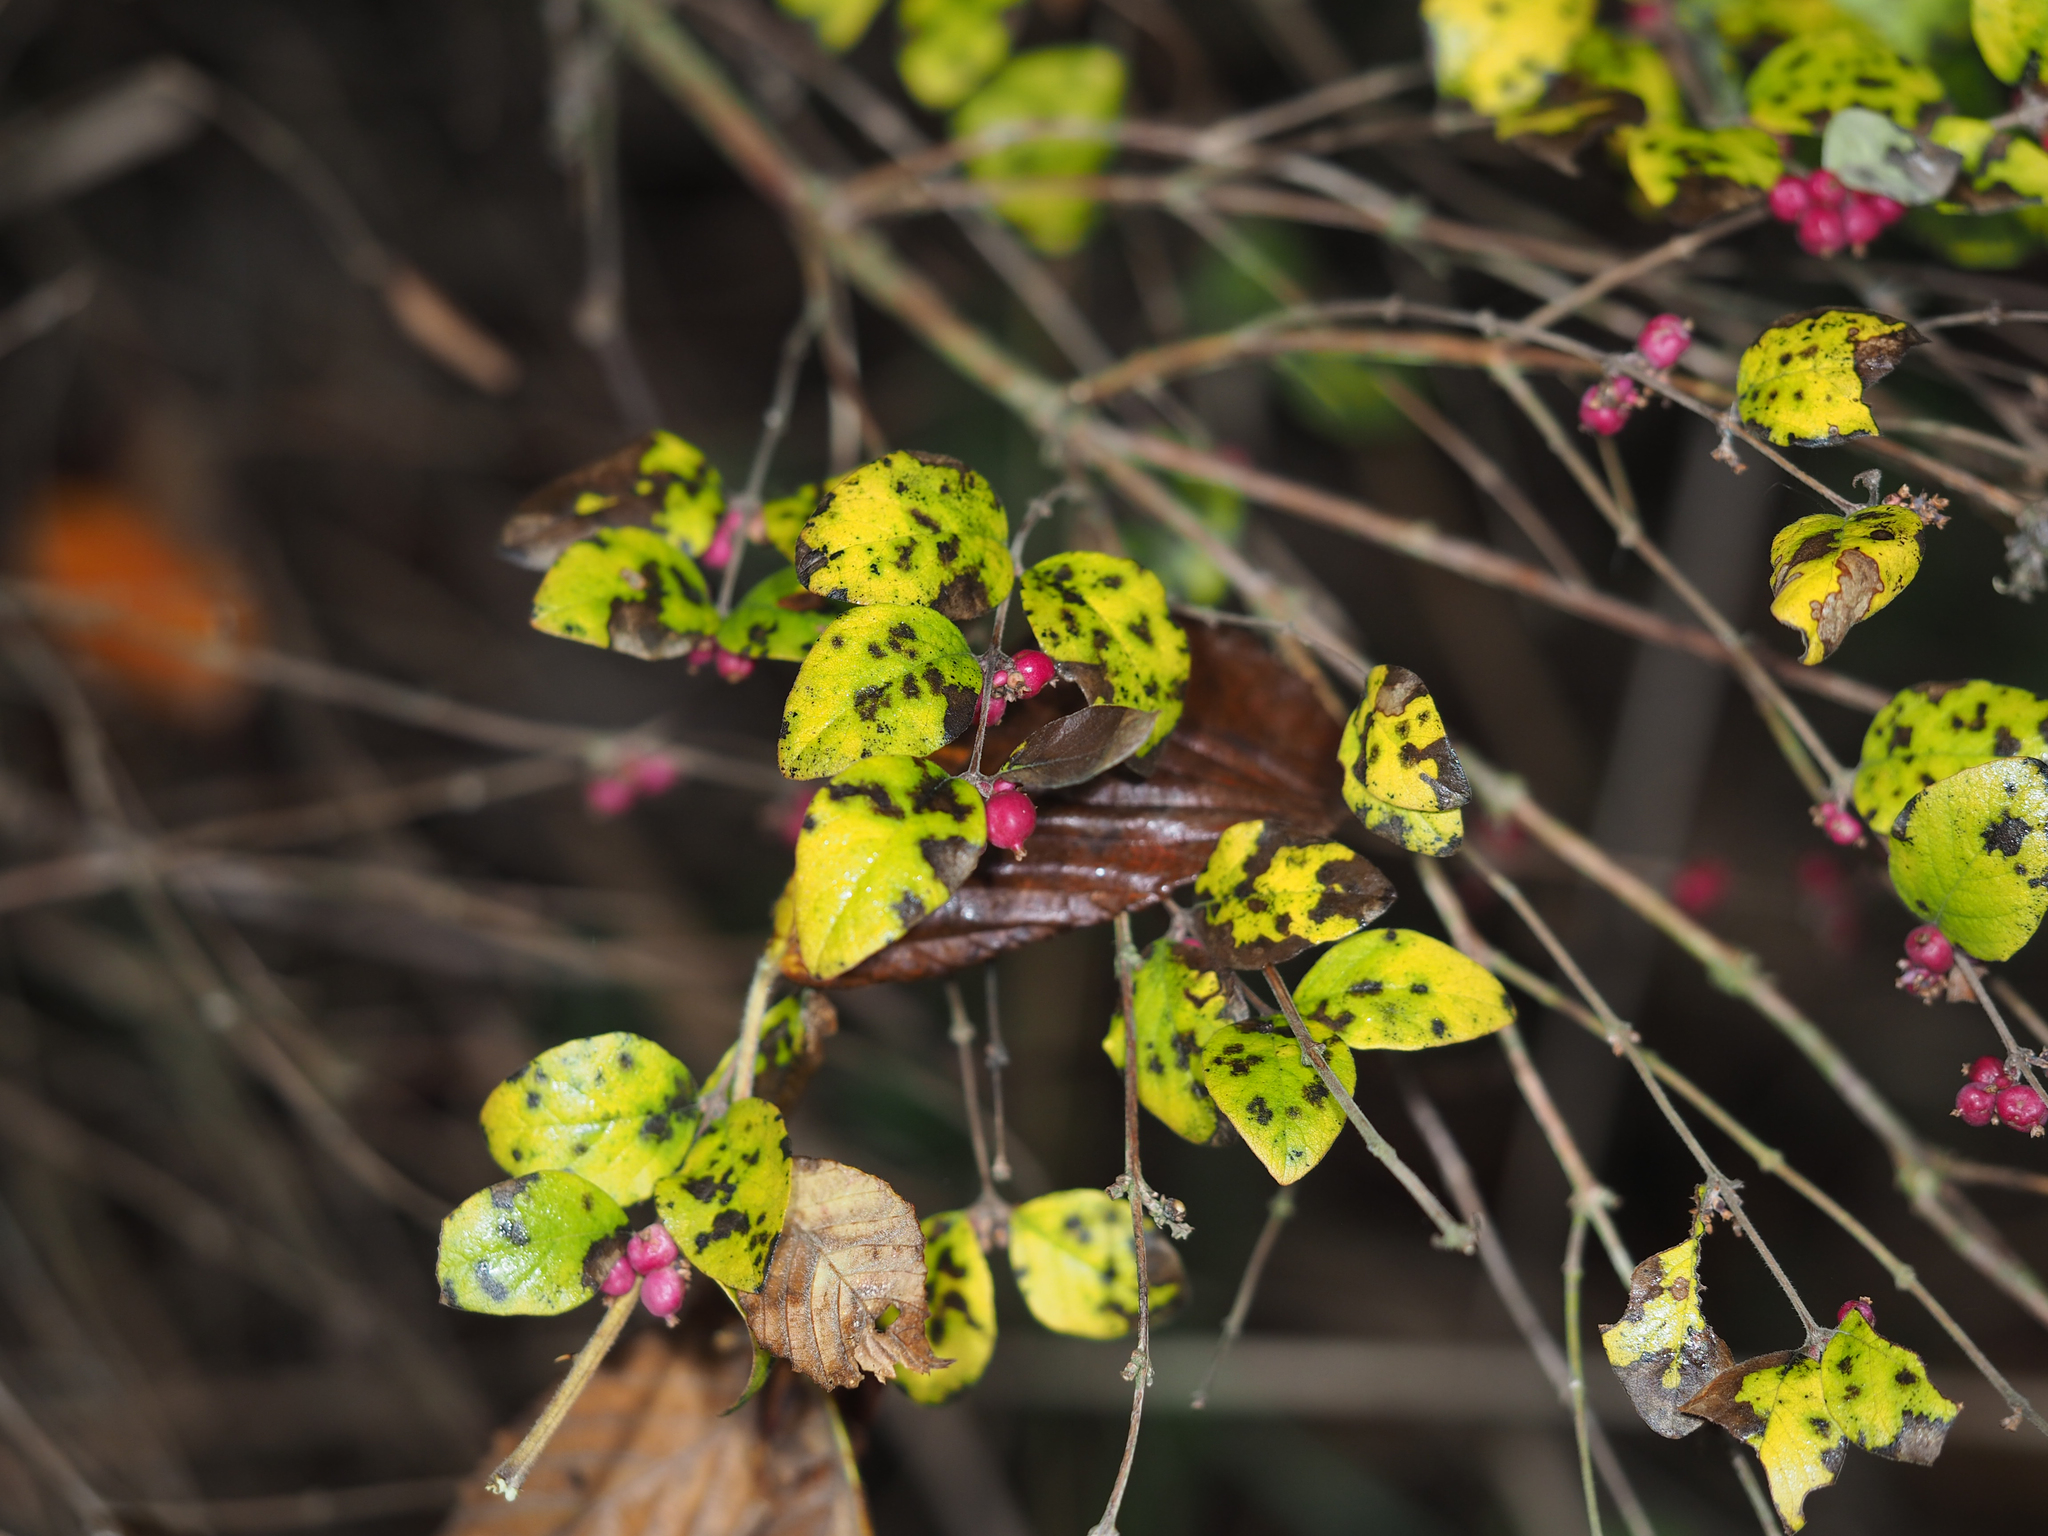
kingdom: Plantae
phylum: Tracheophyta
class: Magnoliopsida
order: Dipsacales
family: Caprifoliaceae
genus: Symphoricarpos
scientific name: Symphoricarpos orbiculatus
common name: Coralberry
